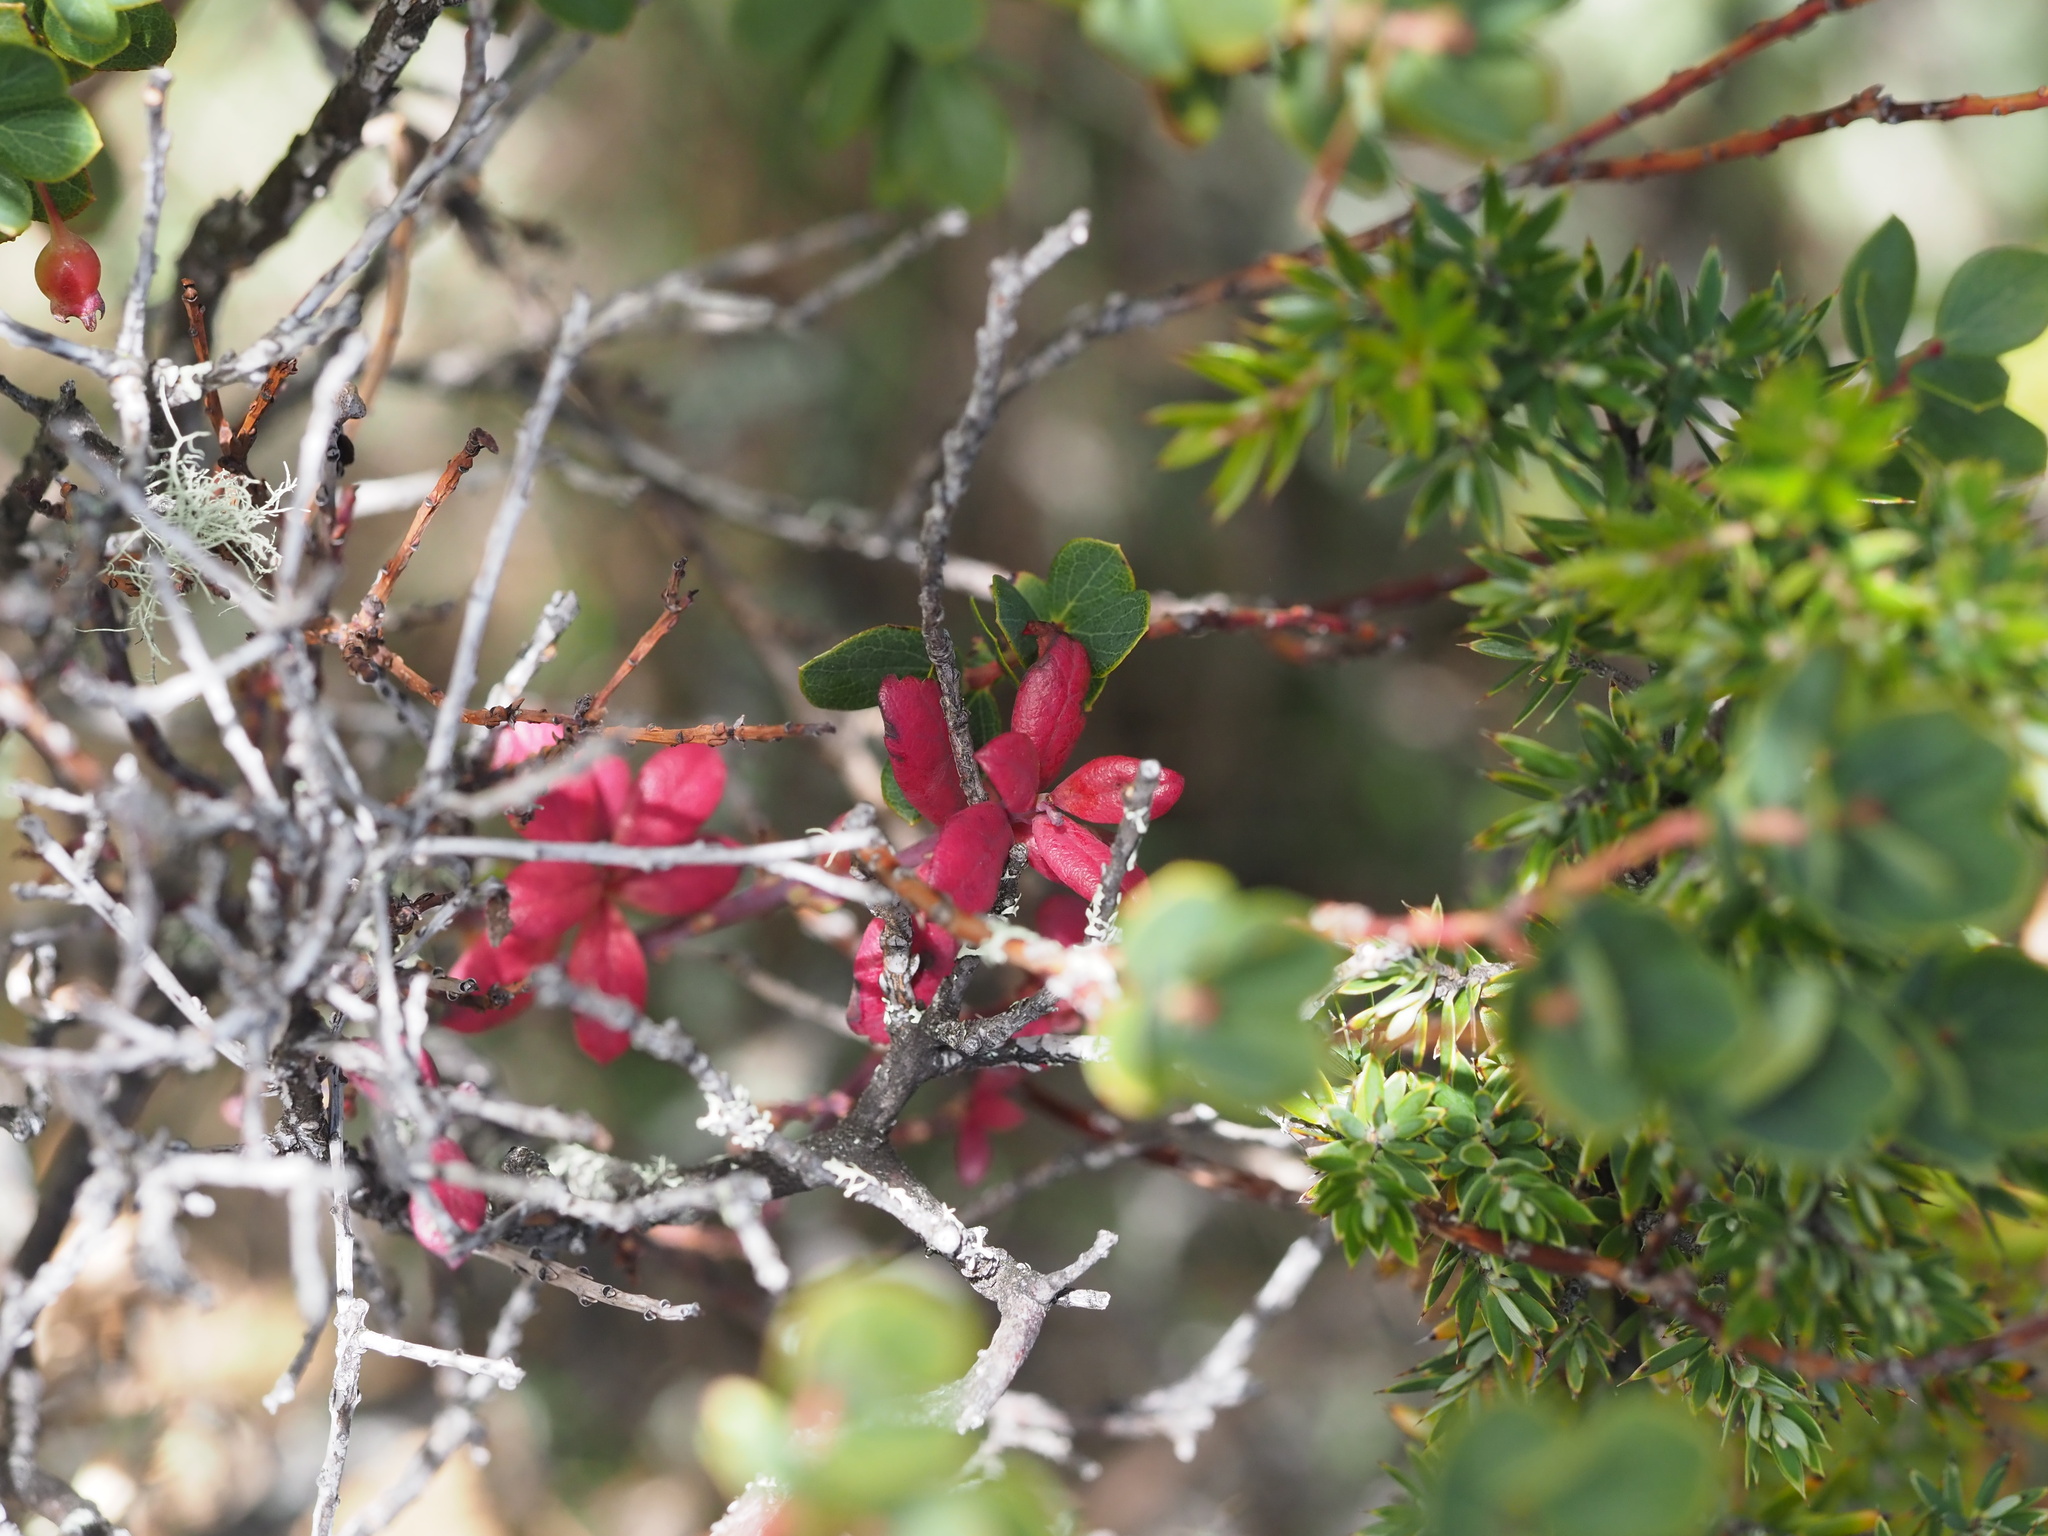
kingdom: Fungi
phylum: Basidiomycota
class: Exobasidiomycetes
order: Exobasidiales
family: Exobasidiaceae
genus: Exobasidium
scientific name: Exobasidium darwinii
